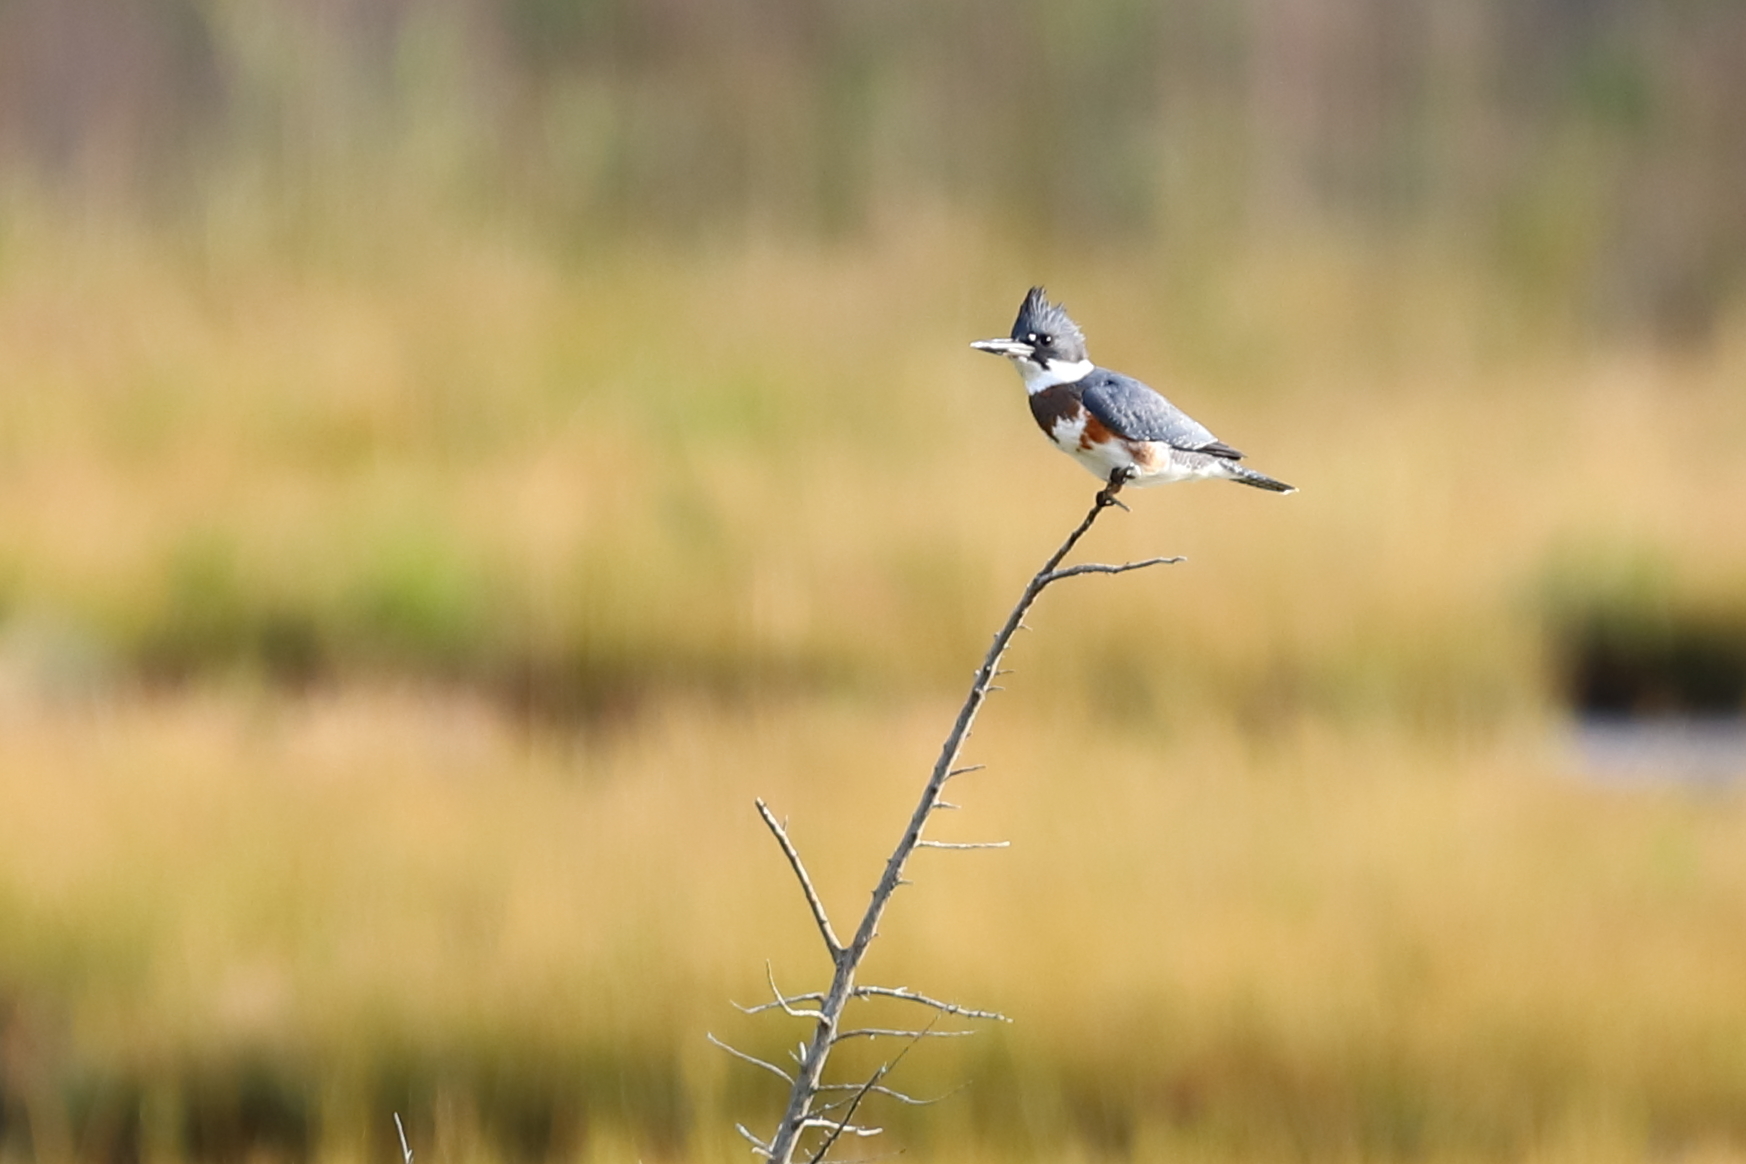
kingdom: Animalia
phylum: Chordata
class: Aves
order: Coraciiformes
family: Alcedinidae
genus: Megaceryle
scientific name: Megaceryle alcyon
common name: Belted kingfisher
